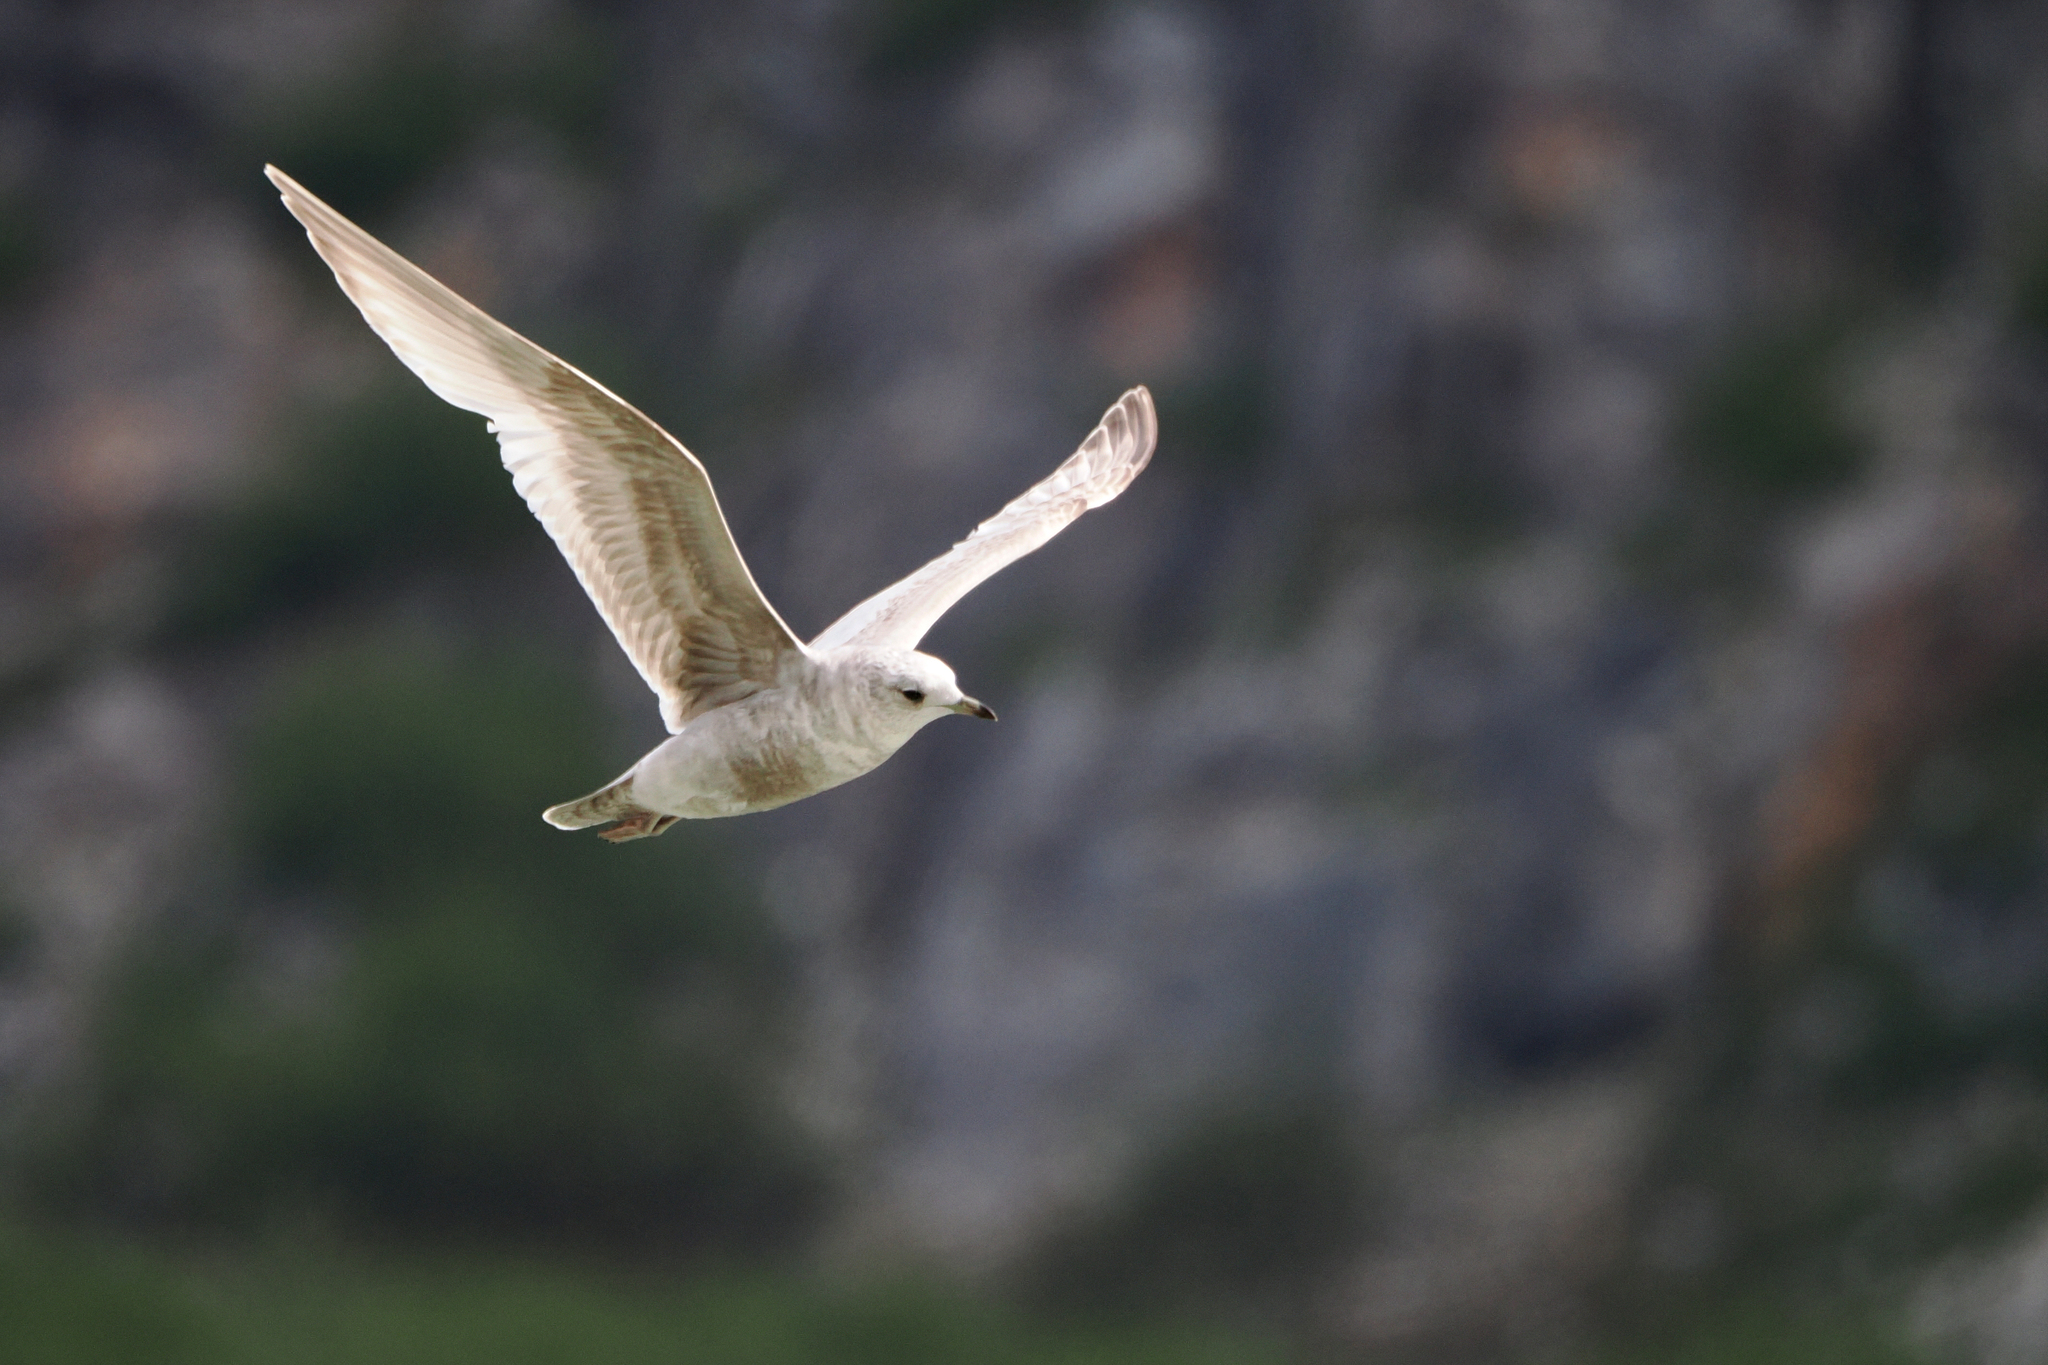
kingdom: Animalia
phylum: Chordata
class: Aves
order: Charadriiformes
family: Laridae
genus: Larus
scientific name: Larus brachyrhynchus
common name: Short-billed gull
